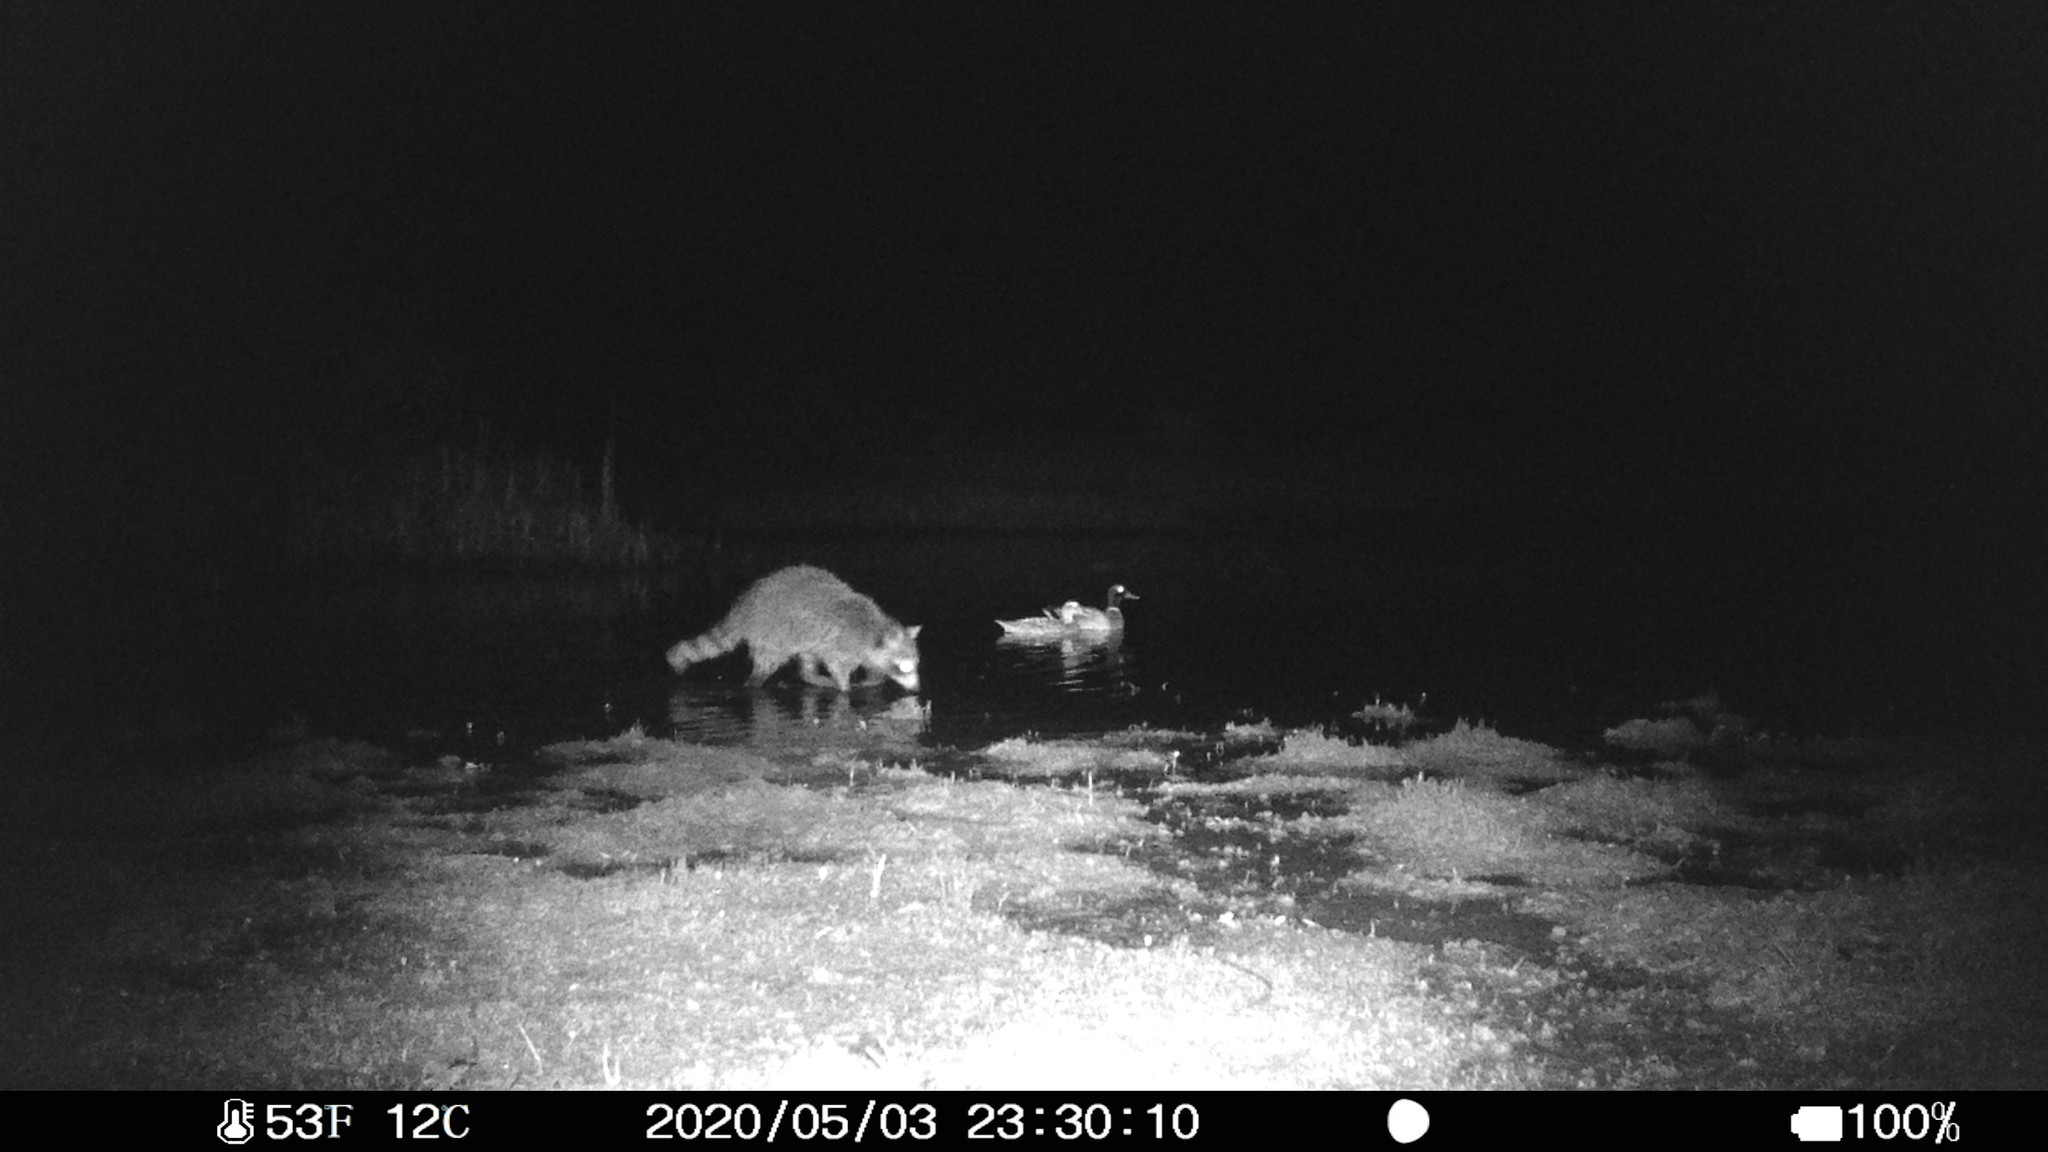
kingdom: Animalia
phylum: Chordata
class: Mammalia
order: Carnivora
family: Procyonidae
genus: Procyon
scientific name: Procyon lotor
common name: Raccoon
